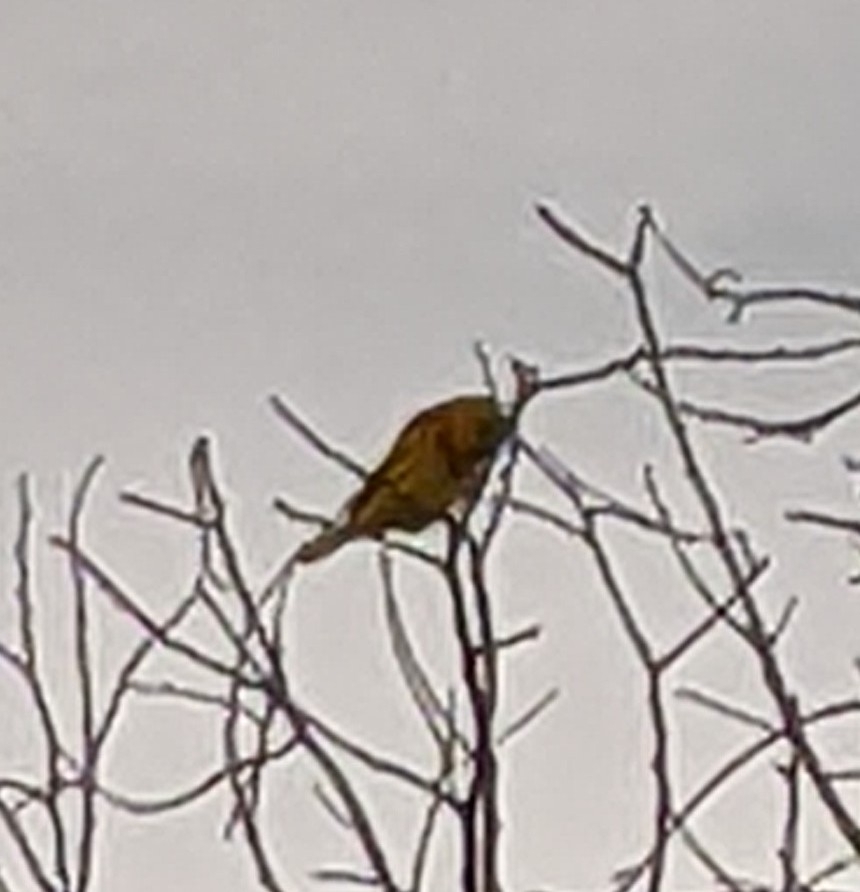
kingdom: Animalia
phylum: Chordata
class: Aves
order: Passeriformes
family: Parulidae
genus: Setophaga
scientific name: Setophaga petechia
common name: Yellow warbler
